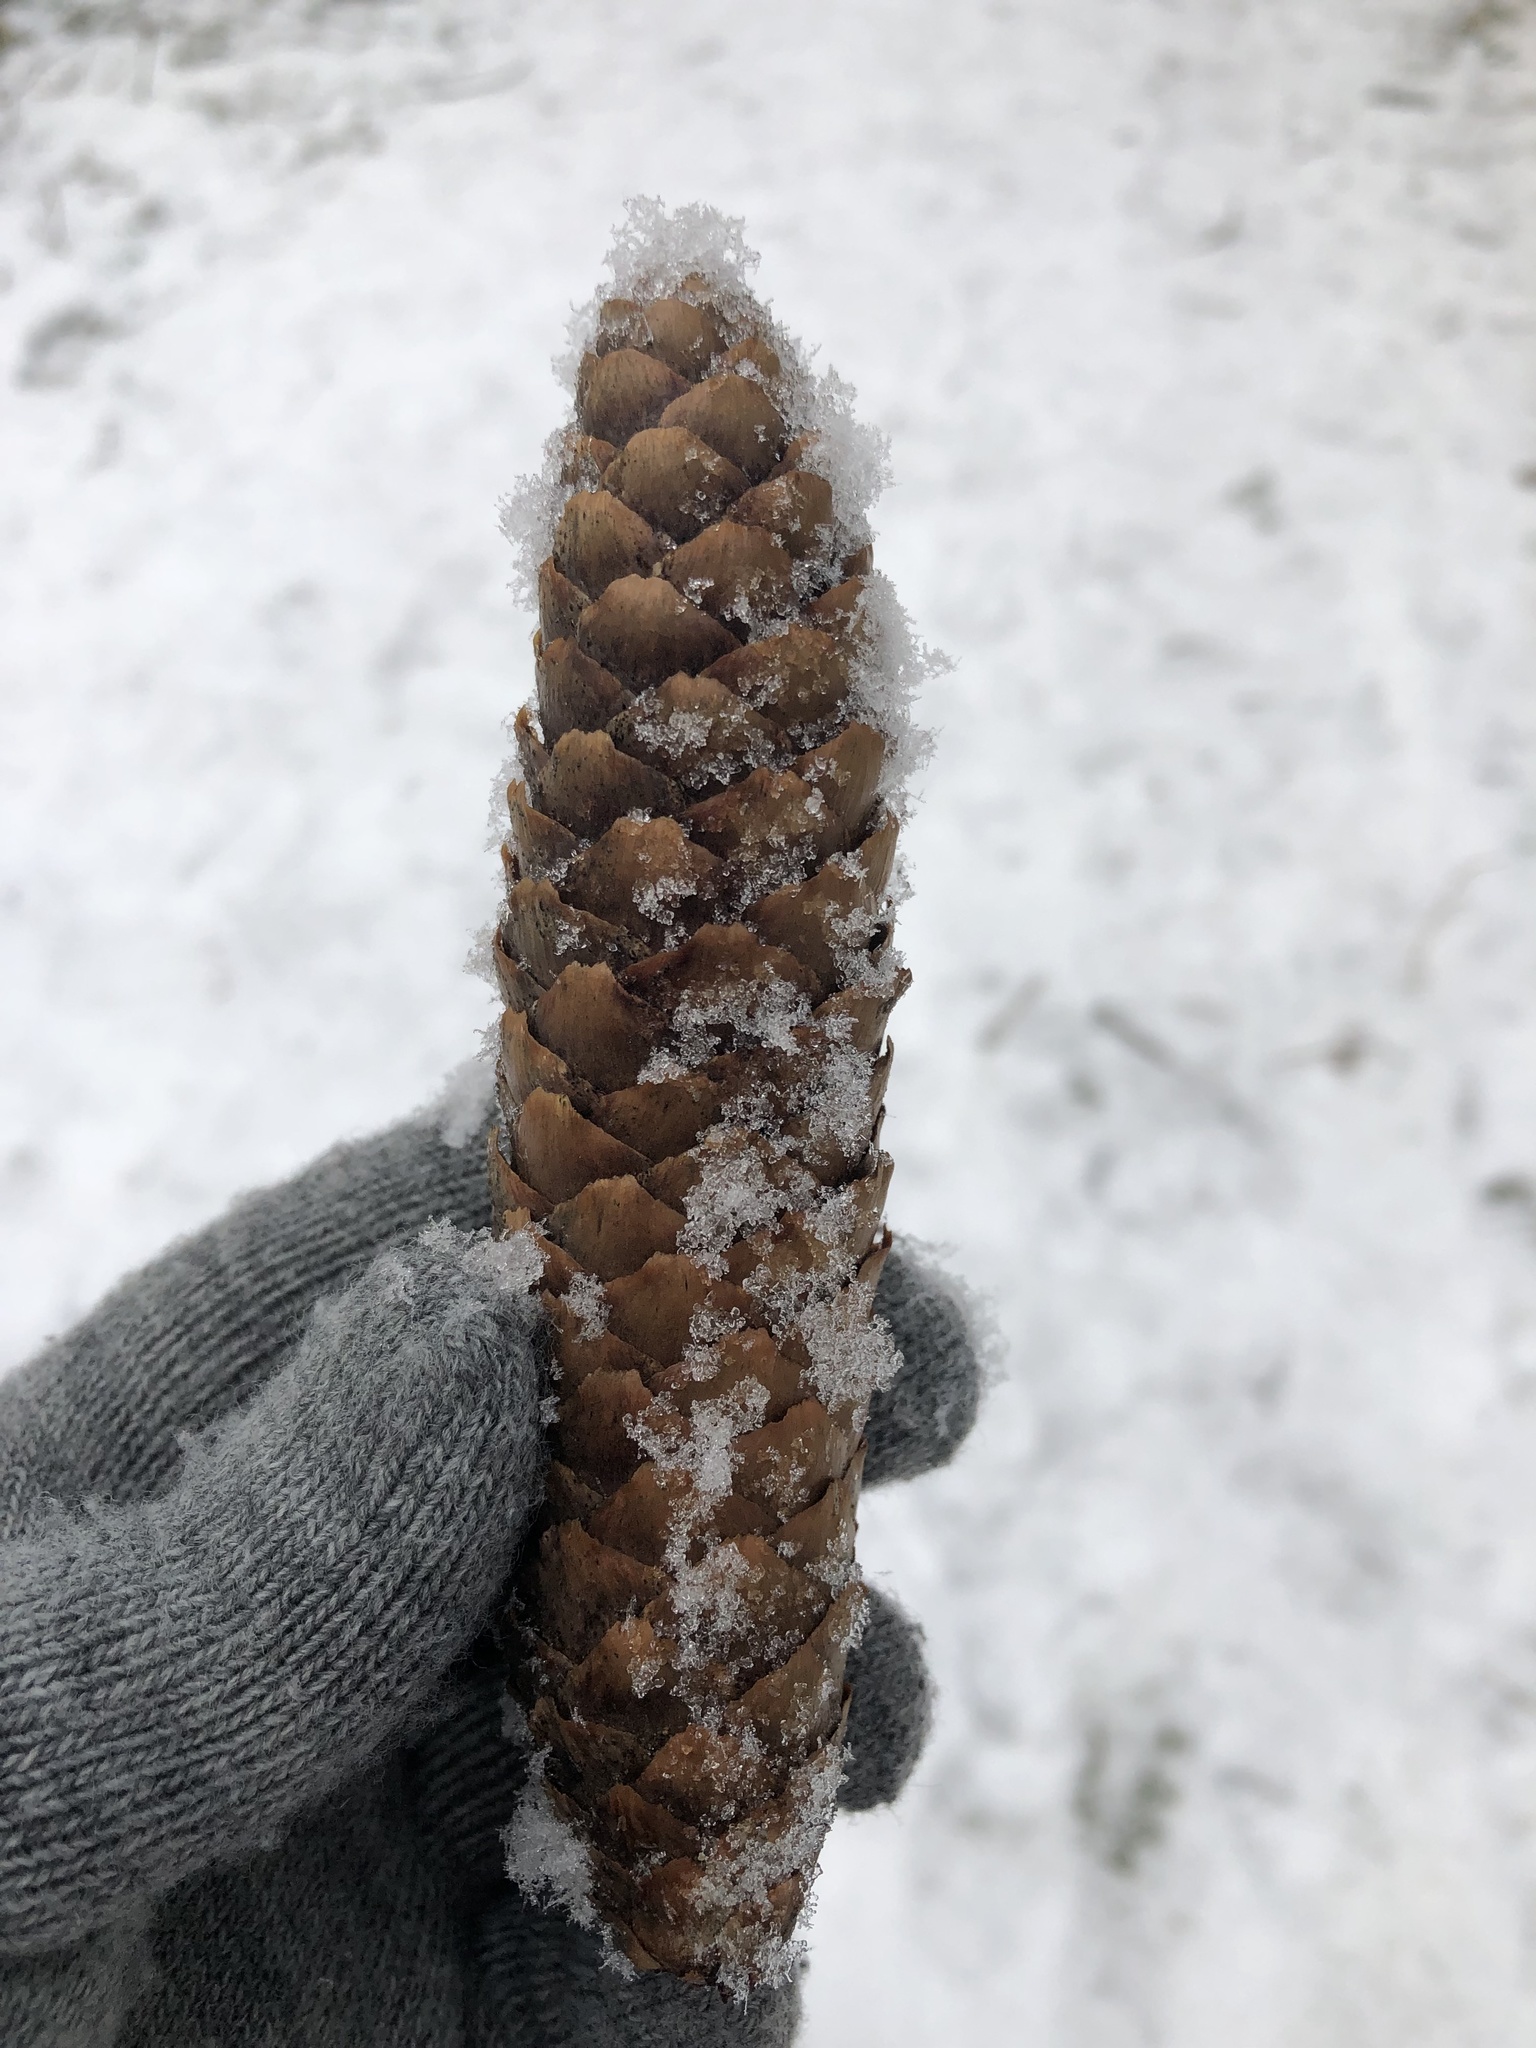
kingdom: Plantae
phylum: Tracheophyta
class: Pinopsida
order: Pinales
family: Pinaceae
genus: Picea
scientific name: Picea abies
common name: Norway spruce
